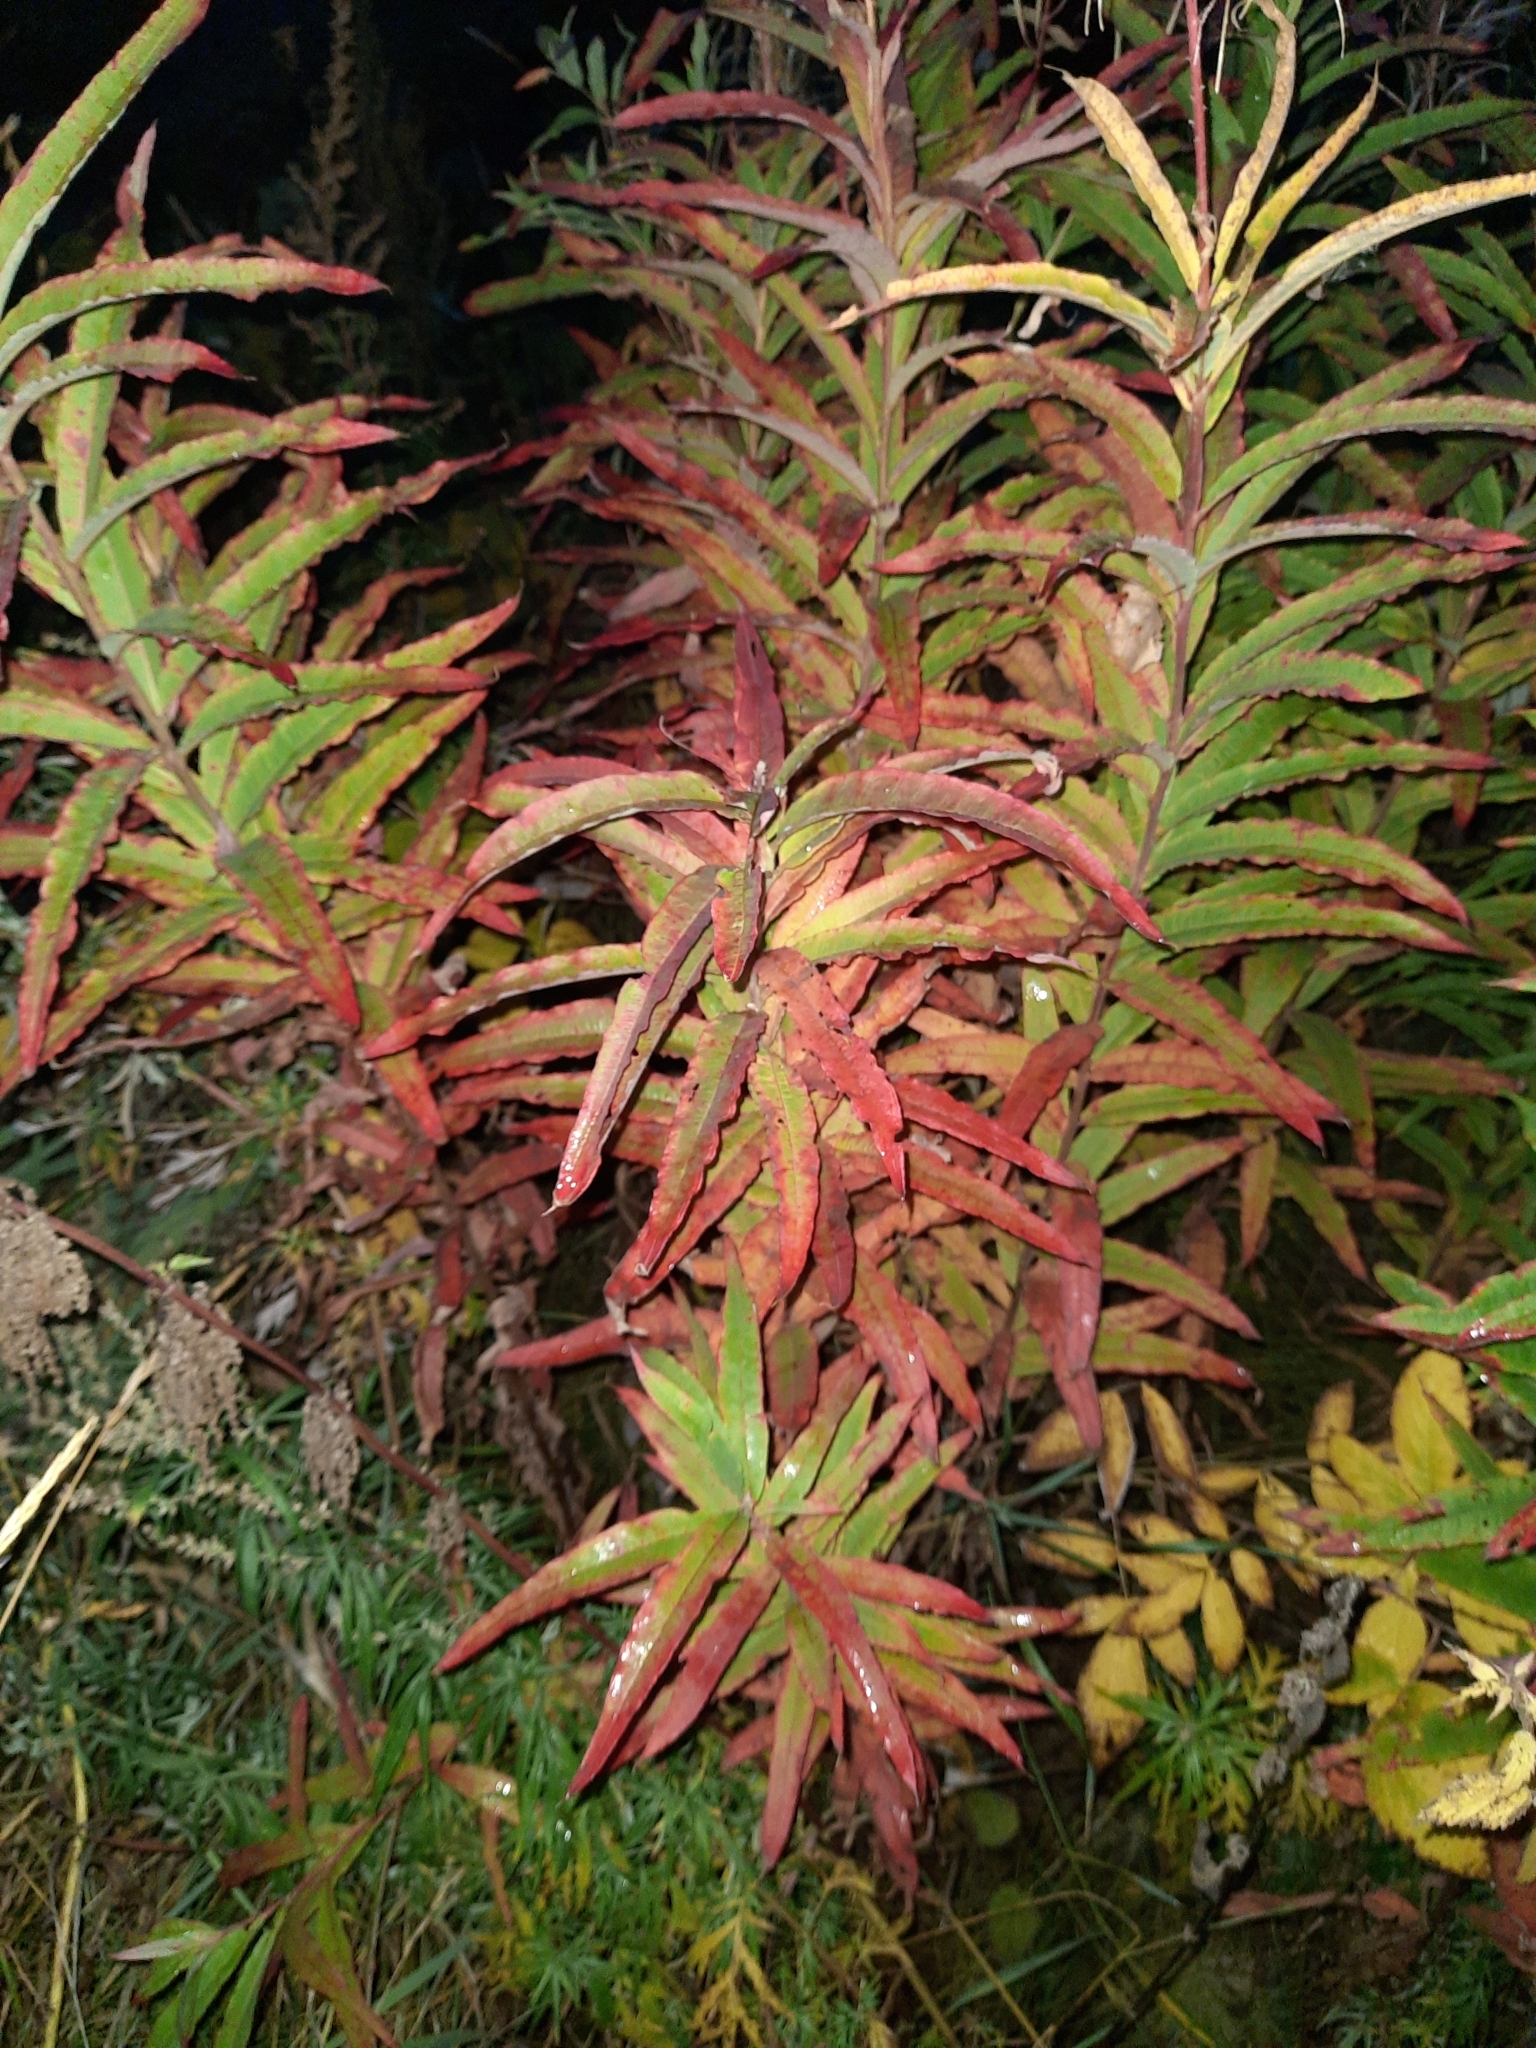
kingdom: Plantae
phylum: Tracheophyta
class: Magnoliopsida
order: Myrtales
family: Onagraceae
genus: Chamaenerion
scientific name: Chamaenerion angustifolium
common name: Fireweed
